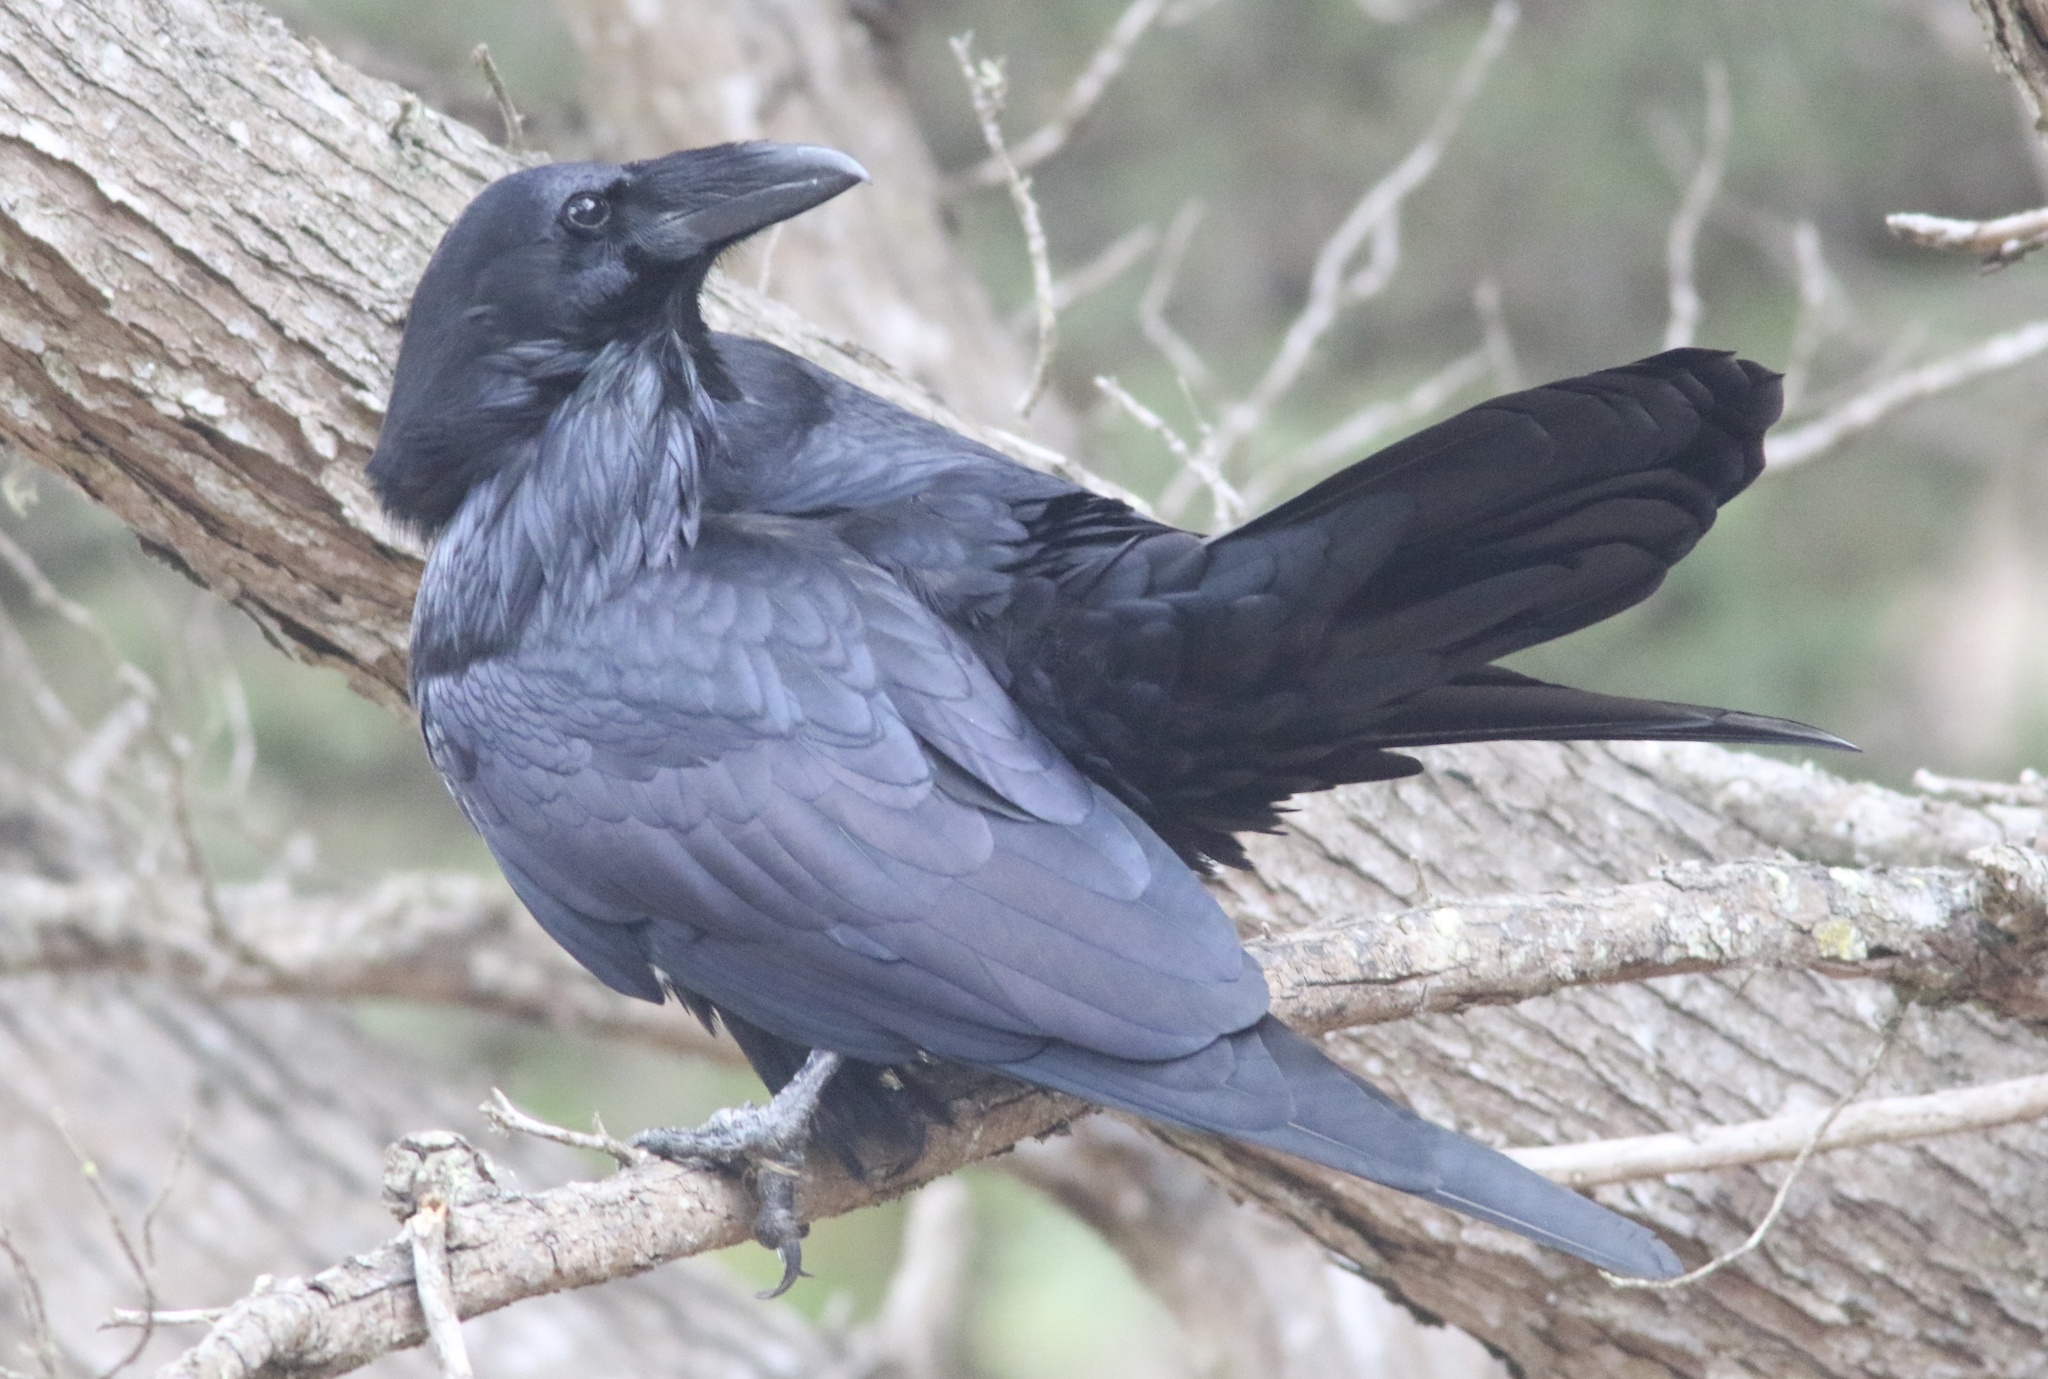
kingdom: Animalia
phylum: Chordata
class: Aves
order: Passeriformes
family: Corvidae
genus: Corvus
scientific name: Corvus corax
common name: Common raven
